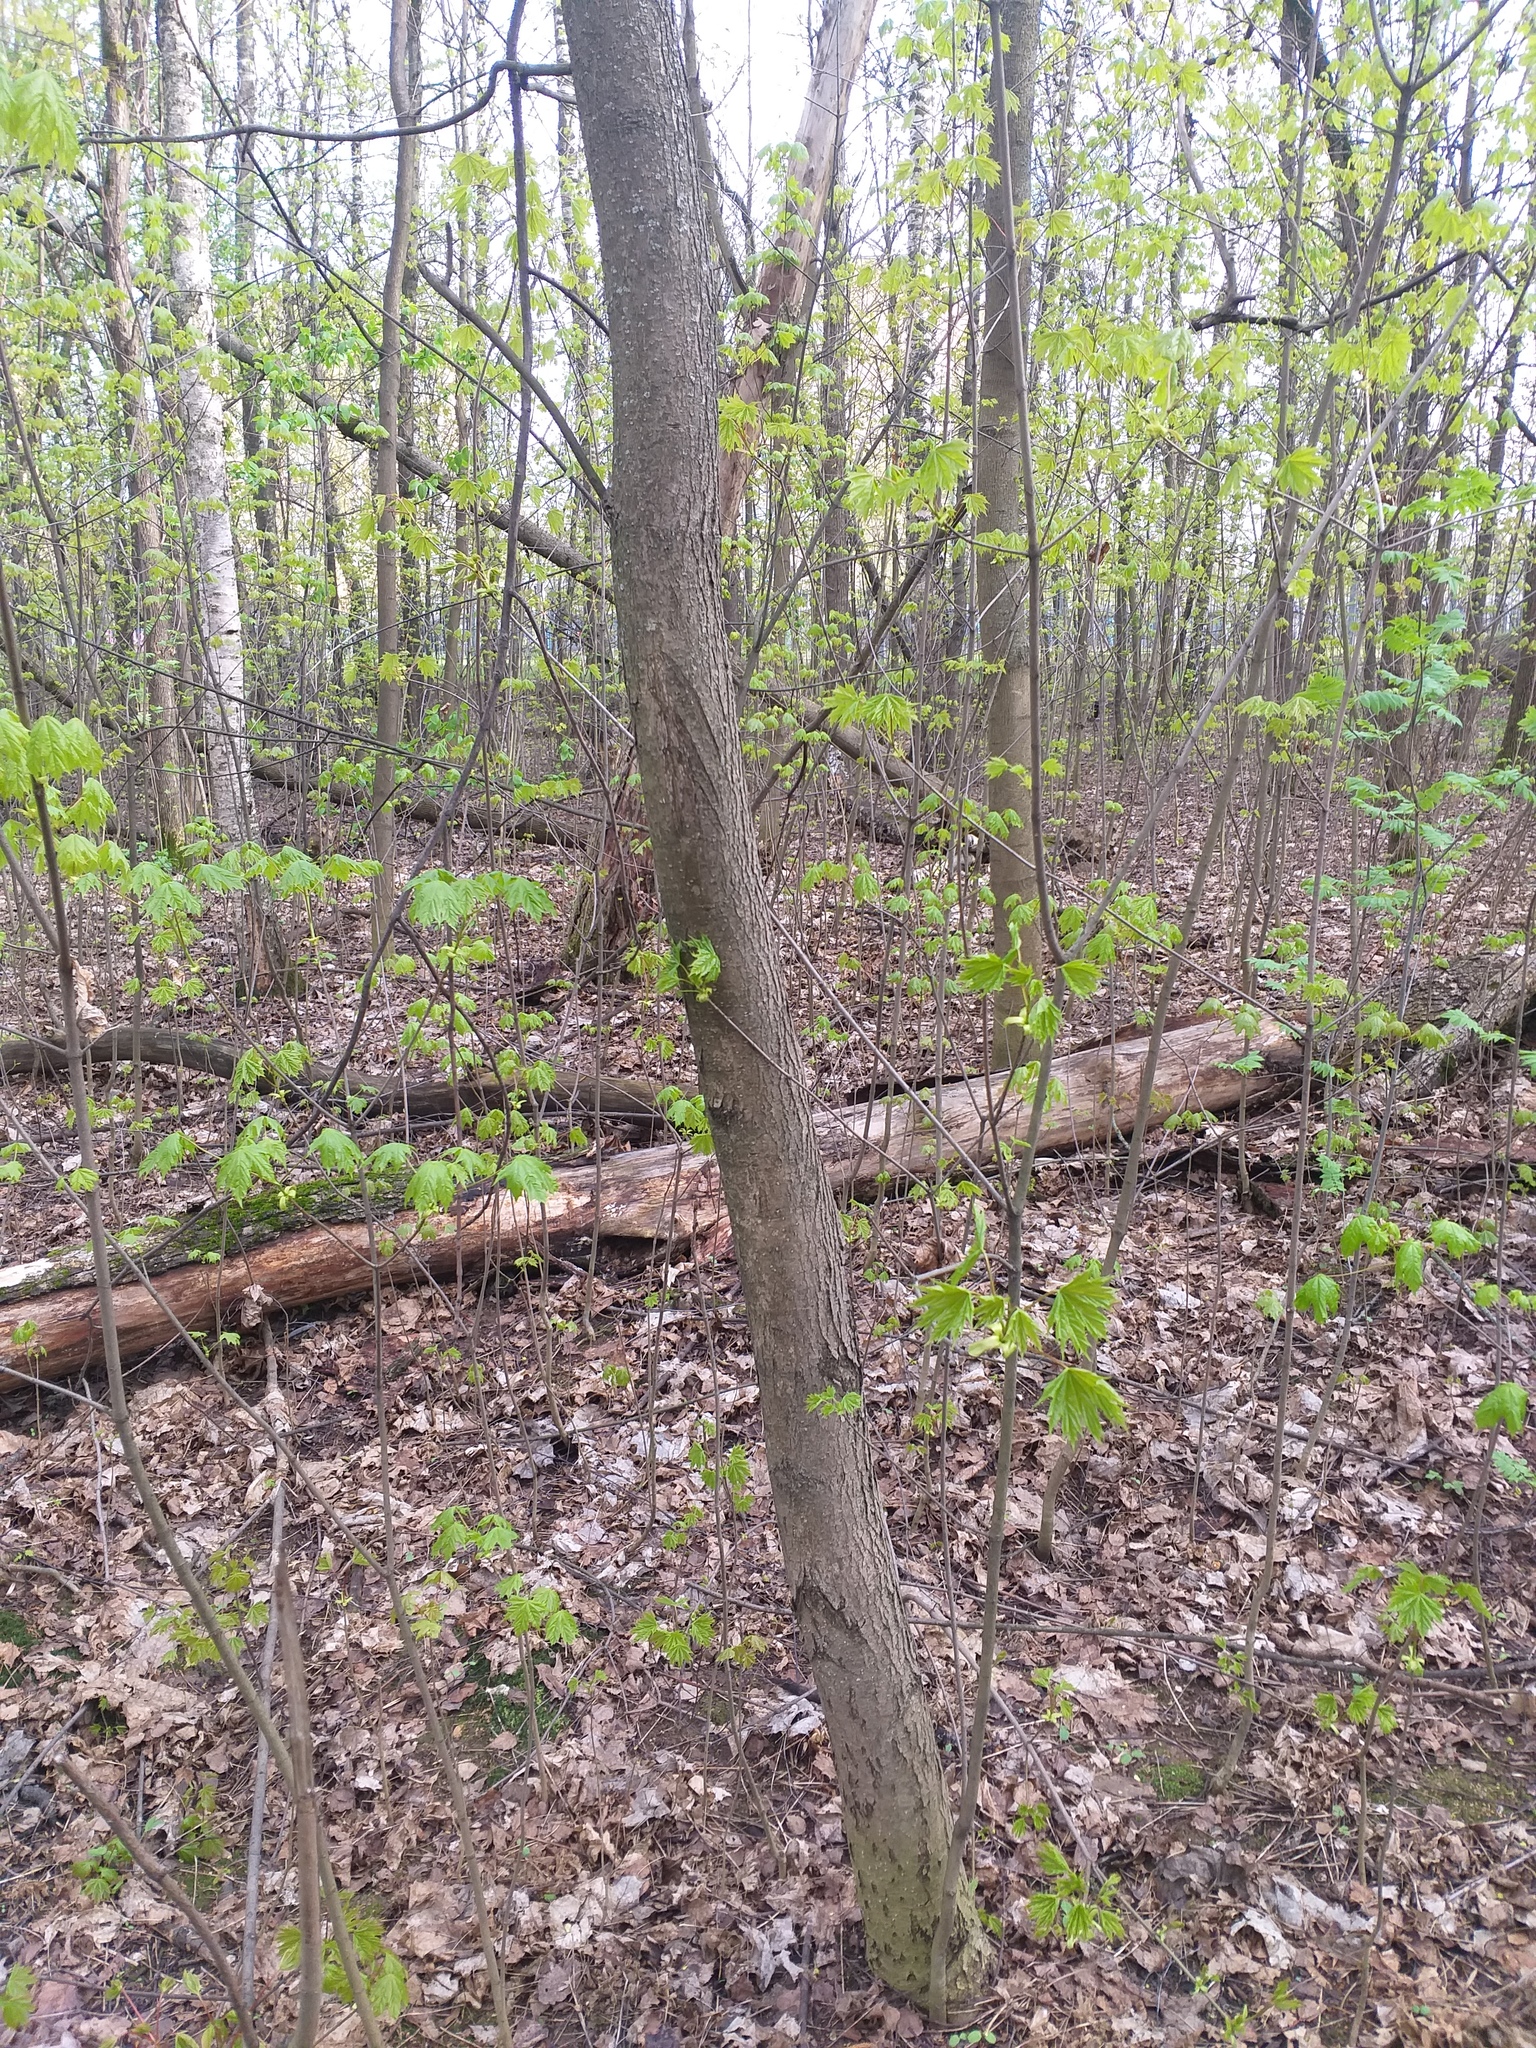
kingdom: Plantae
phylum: Tracheophyta
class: Magnoliopsida
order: Sapindales
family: Sapindaceae
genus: Acer
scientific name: Acer platanoides
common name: Norway maple
